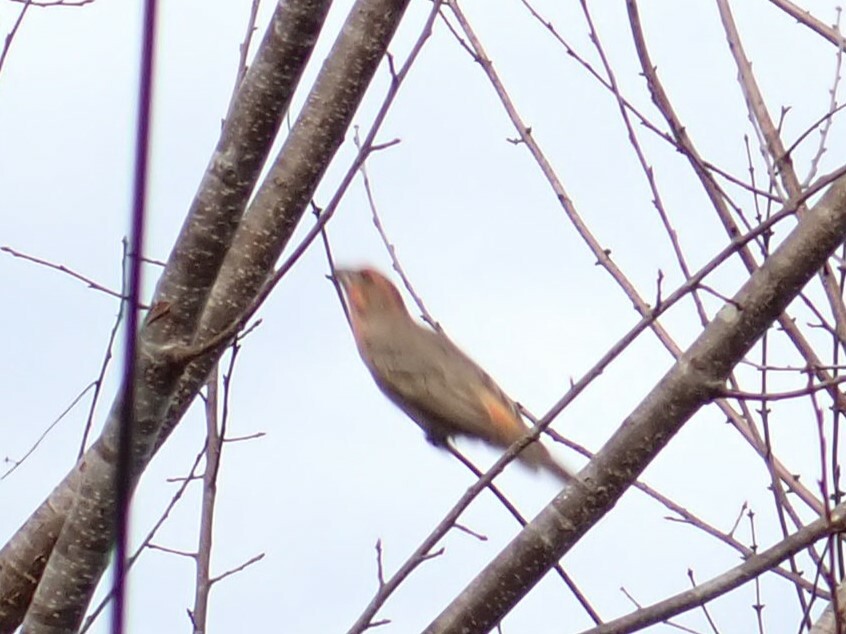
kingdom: Animalia
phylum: Chordata
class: Aves
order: Passeriformes
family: Fringillidae
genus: Haemorhous
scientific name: Haemorhous mexicanus
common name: House finch
